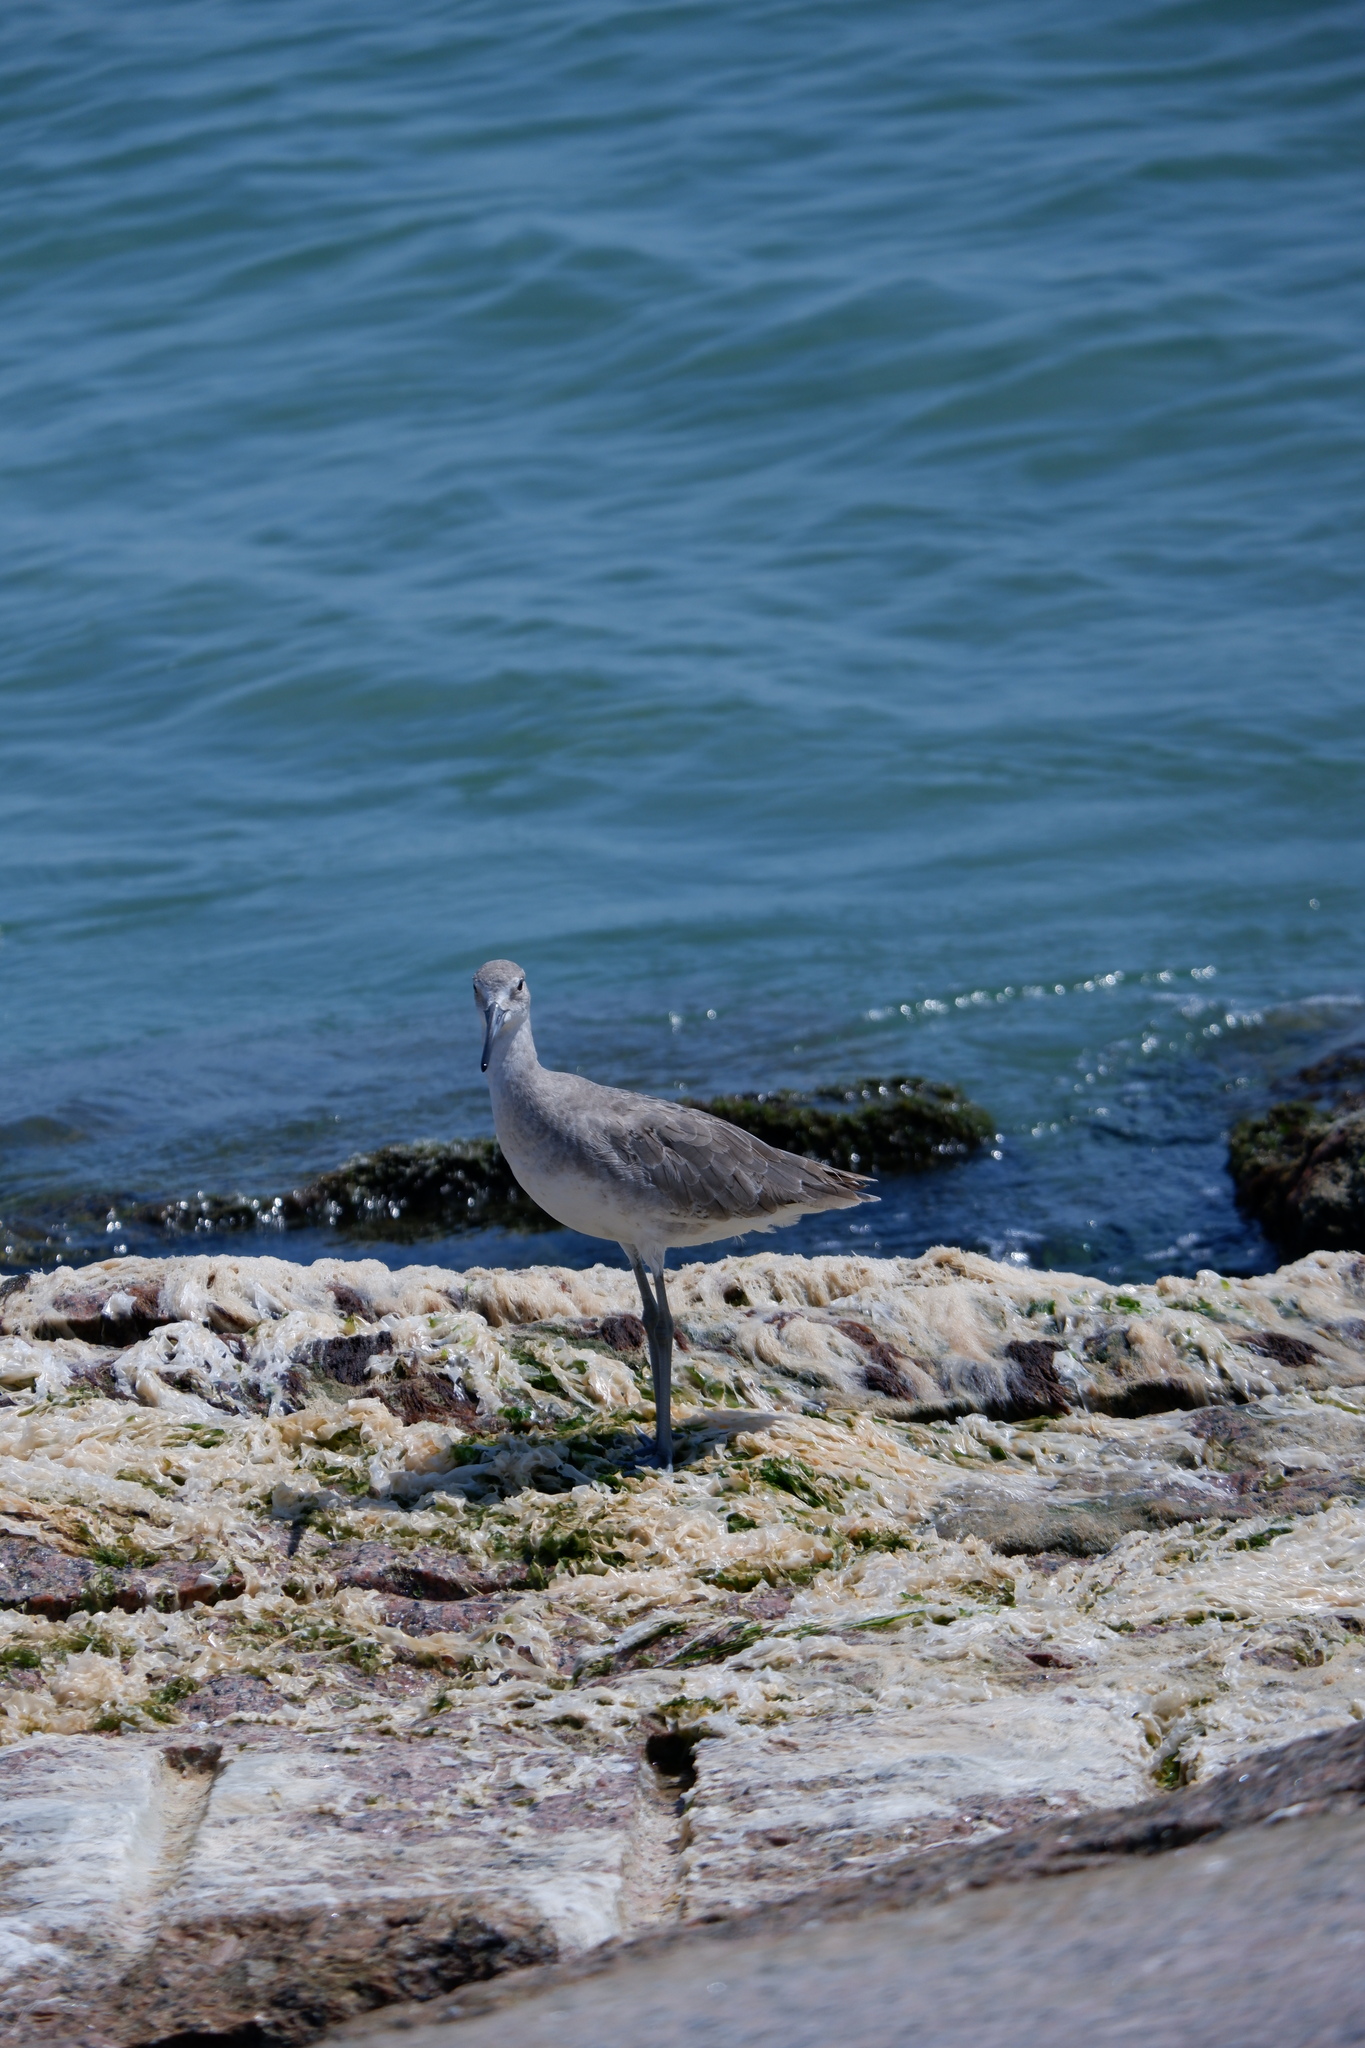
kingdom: Animalia
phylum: Chordata
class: Aves
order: Charadriiformes
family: Scolopacidae
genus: Tringa
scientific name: Tringa semipalmata
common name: Willet
